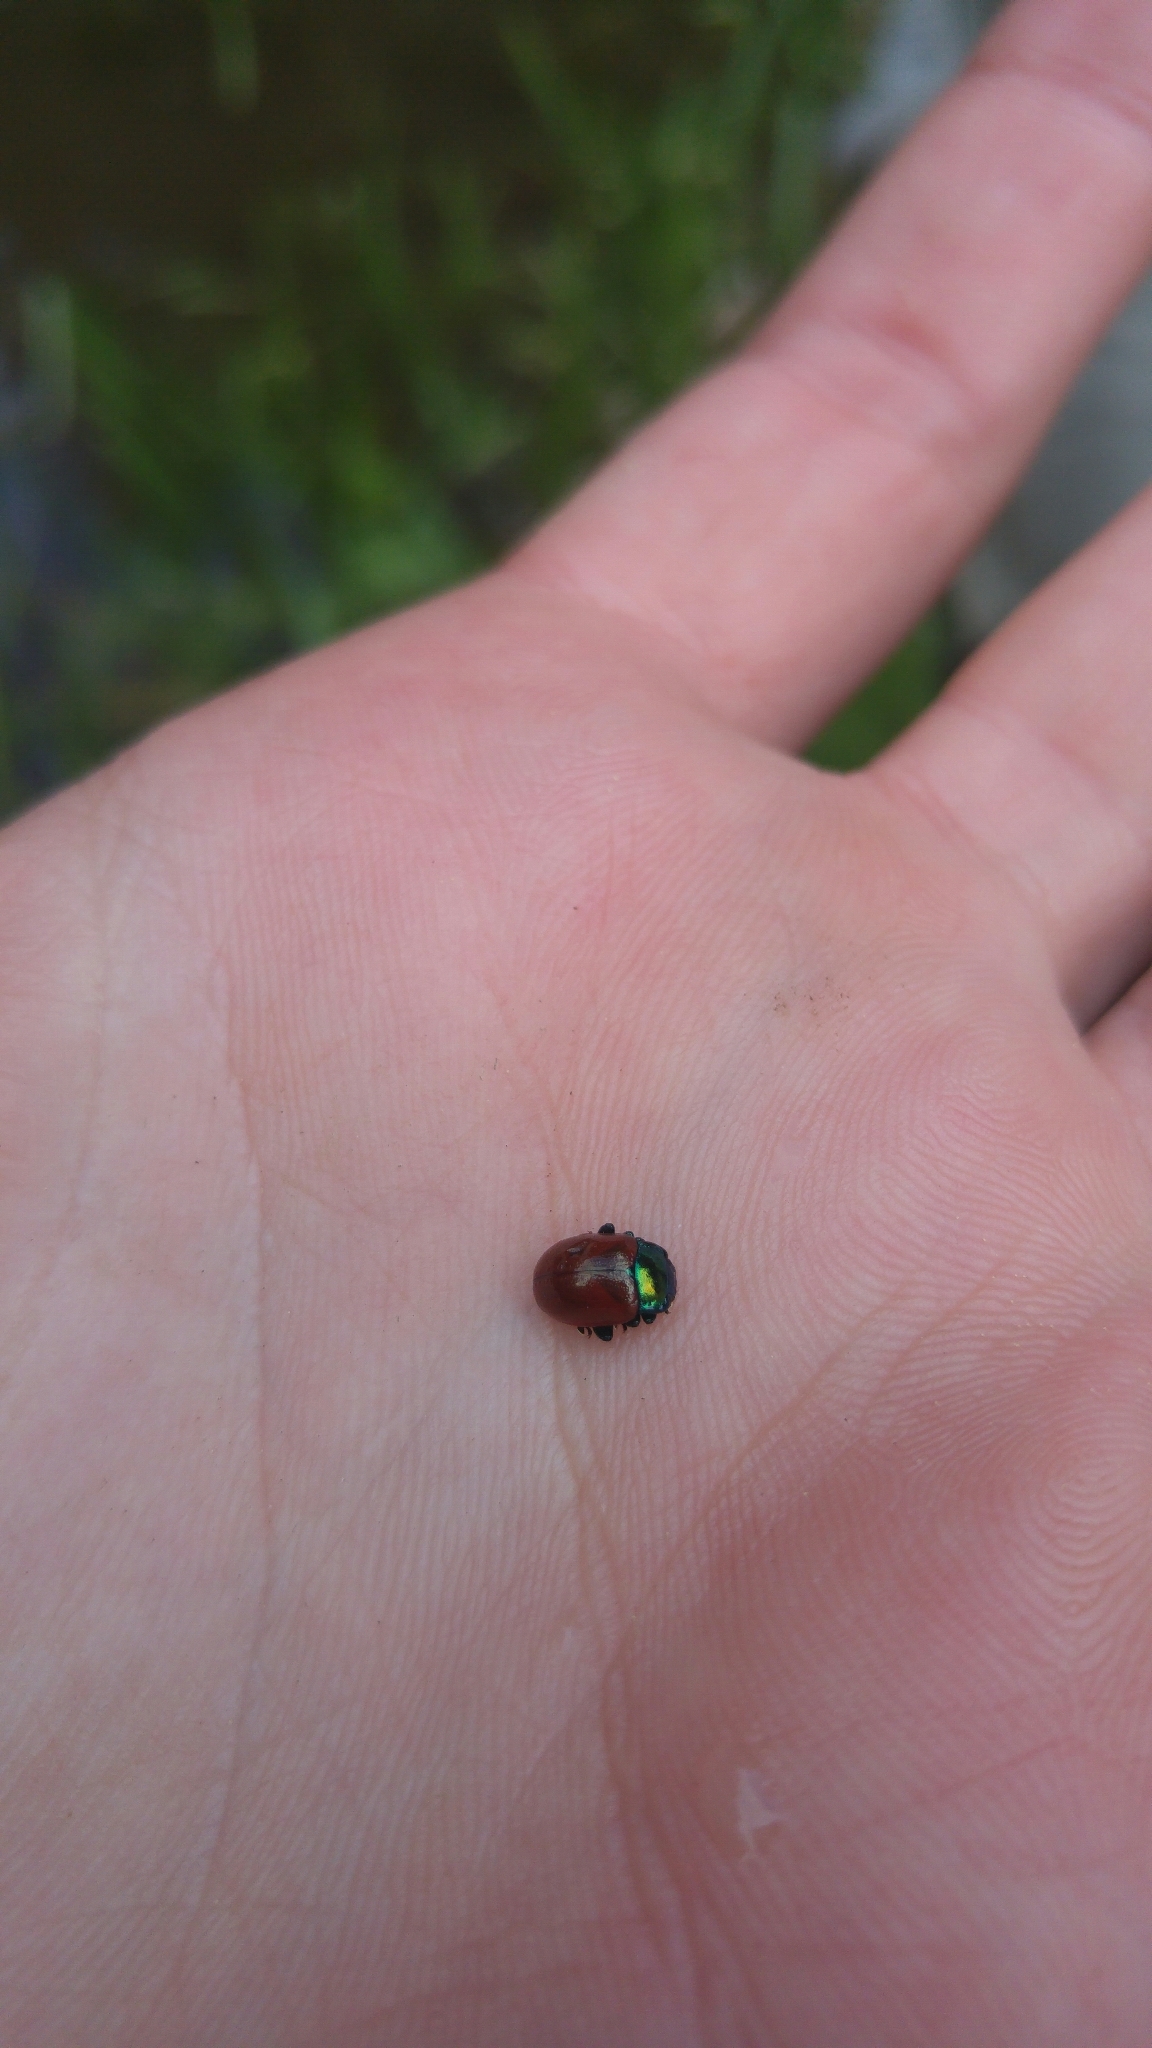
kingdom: Animalia
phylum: Arthropoda
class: Insecta
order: Coleoptera
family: Chrysomelidae
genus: Chrysomela
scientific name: Chrysomela polita
